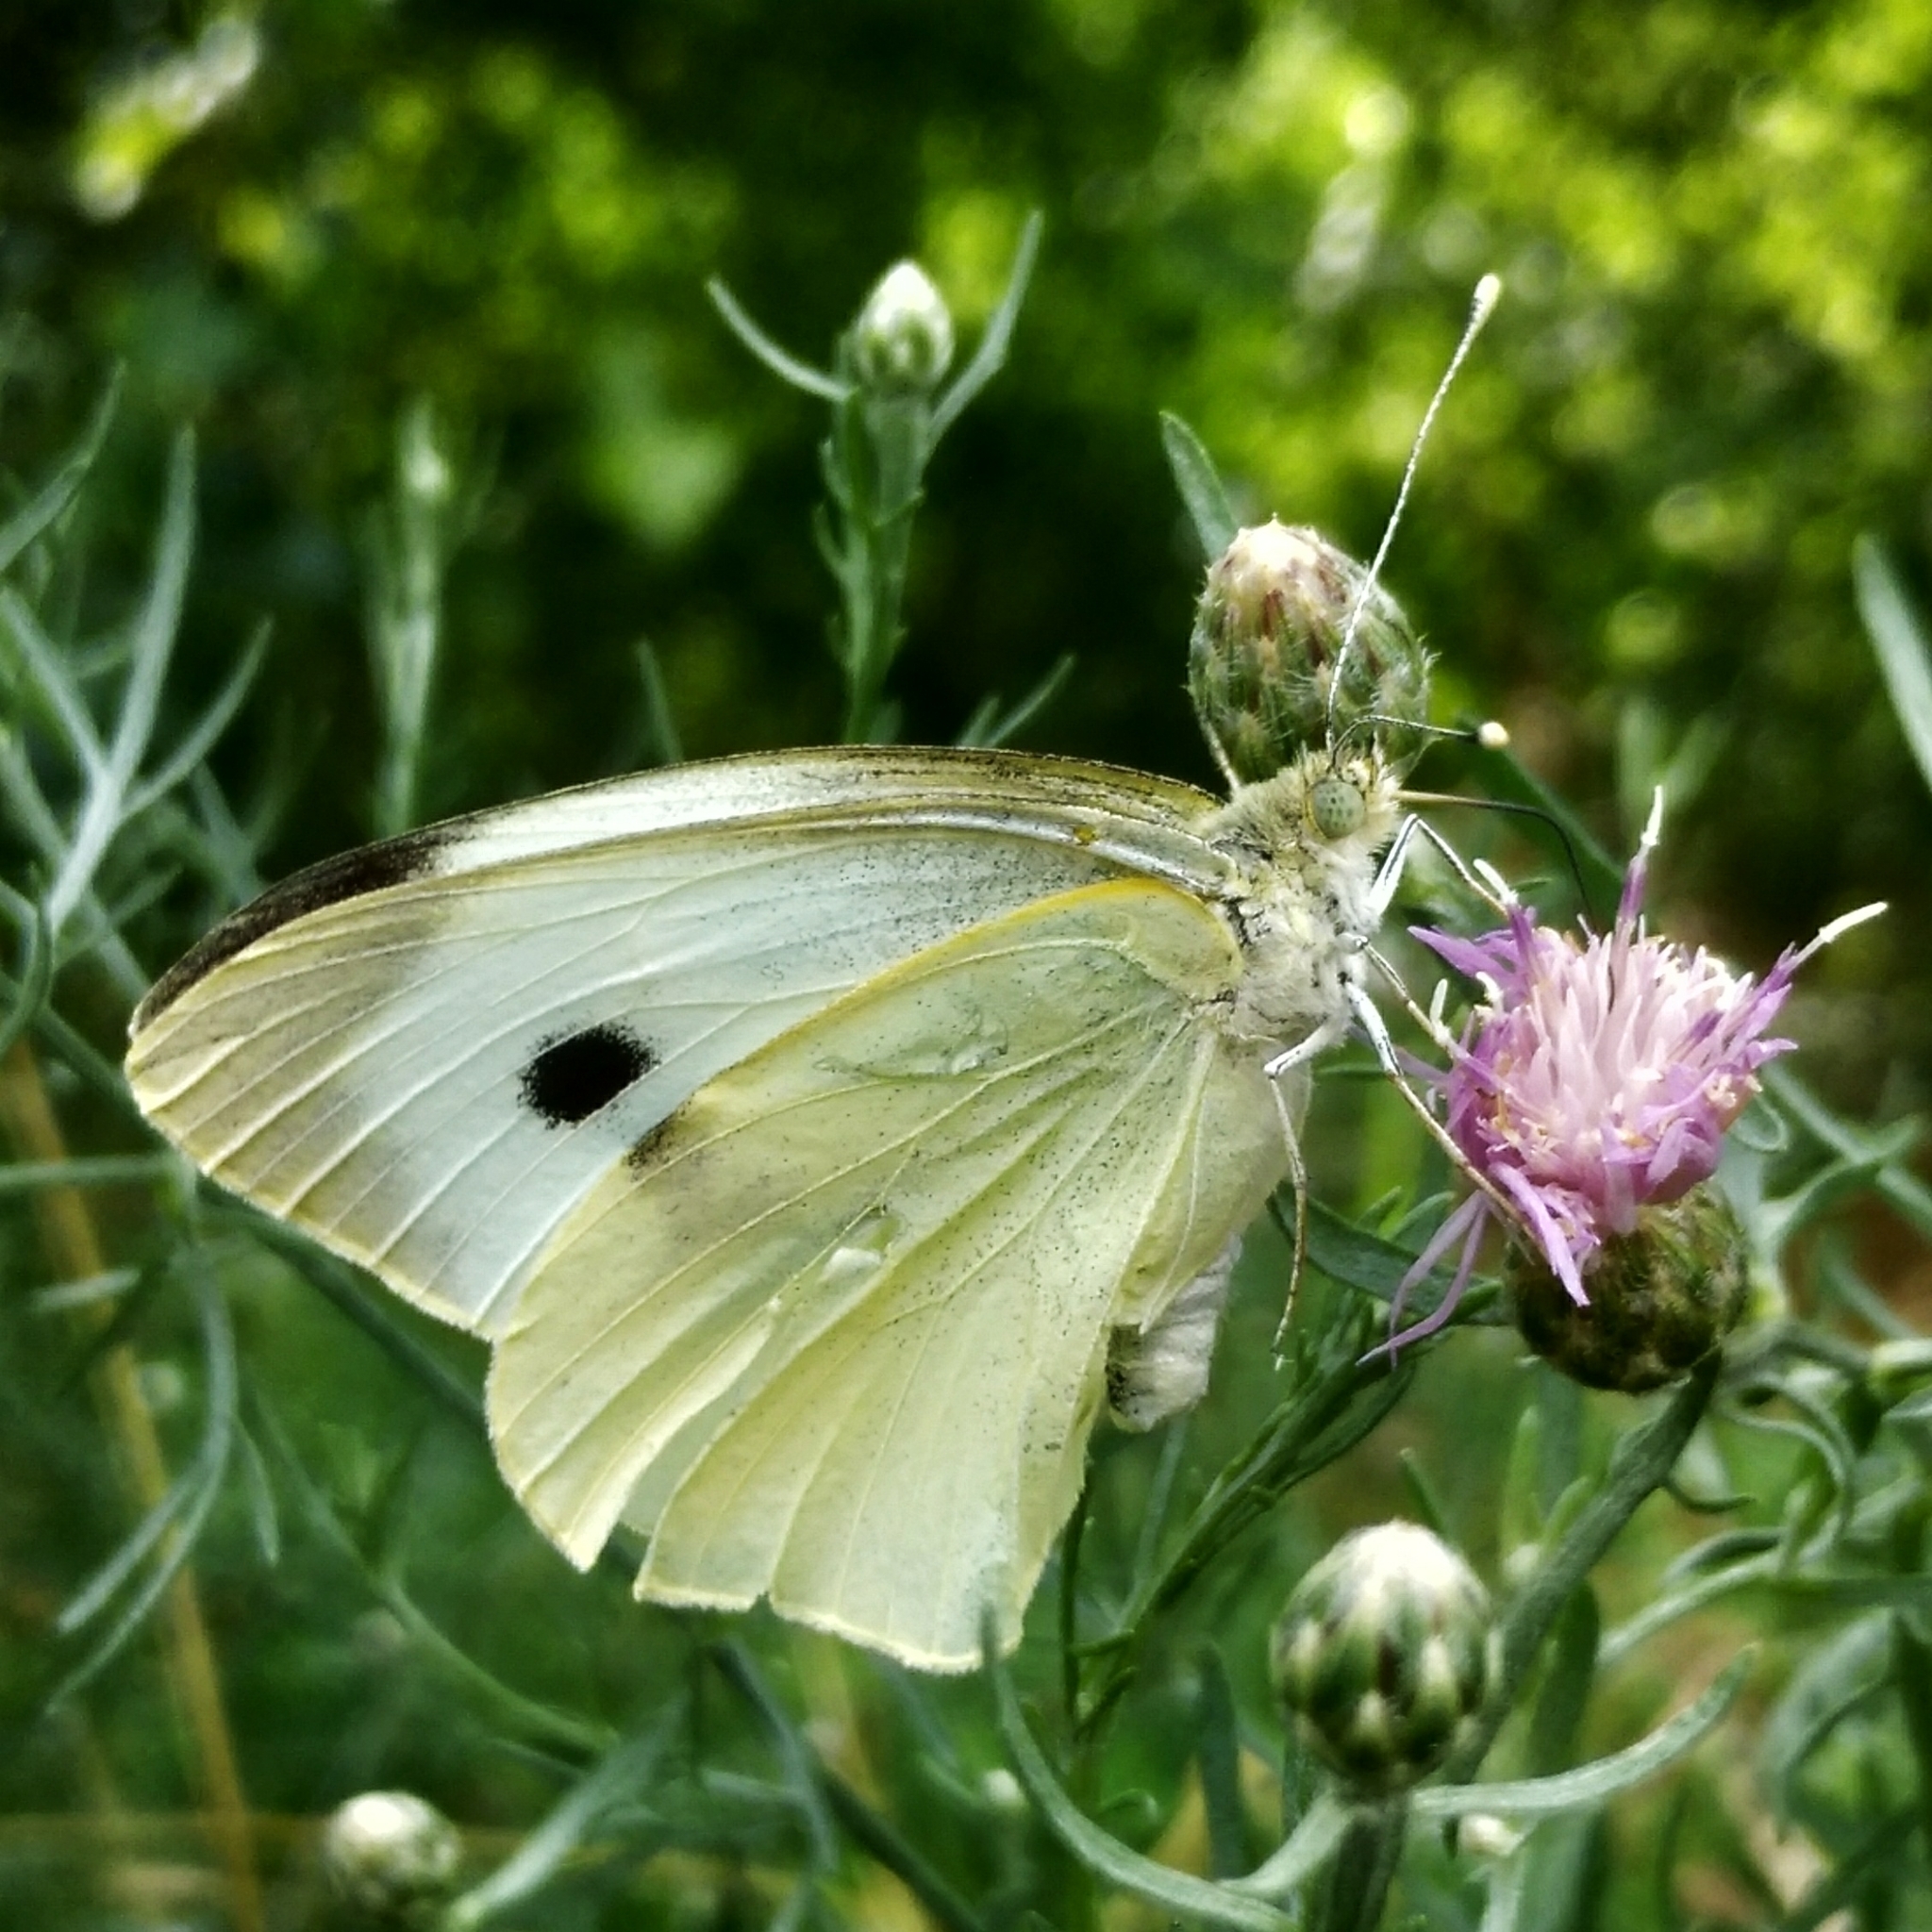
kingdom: Animalia
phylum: Arthropoda
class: Insecta
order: Lepidoptera
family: Pieridae
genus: Pieris
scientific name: Pieris brassicae
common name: Large white
